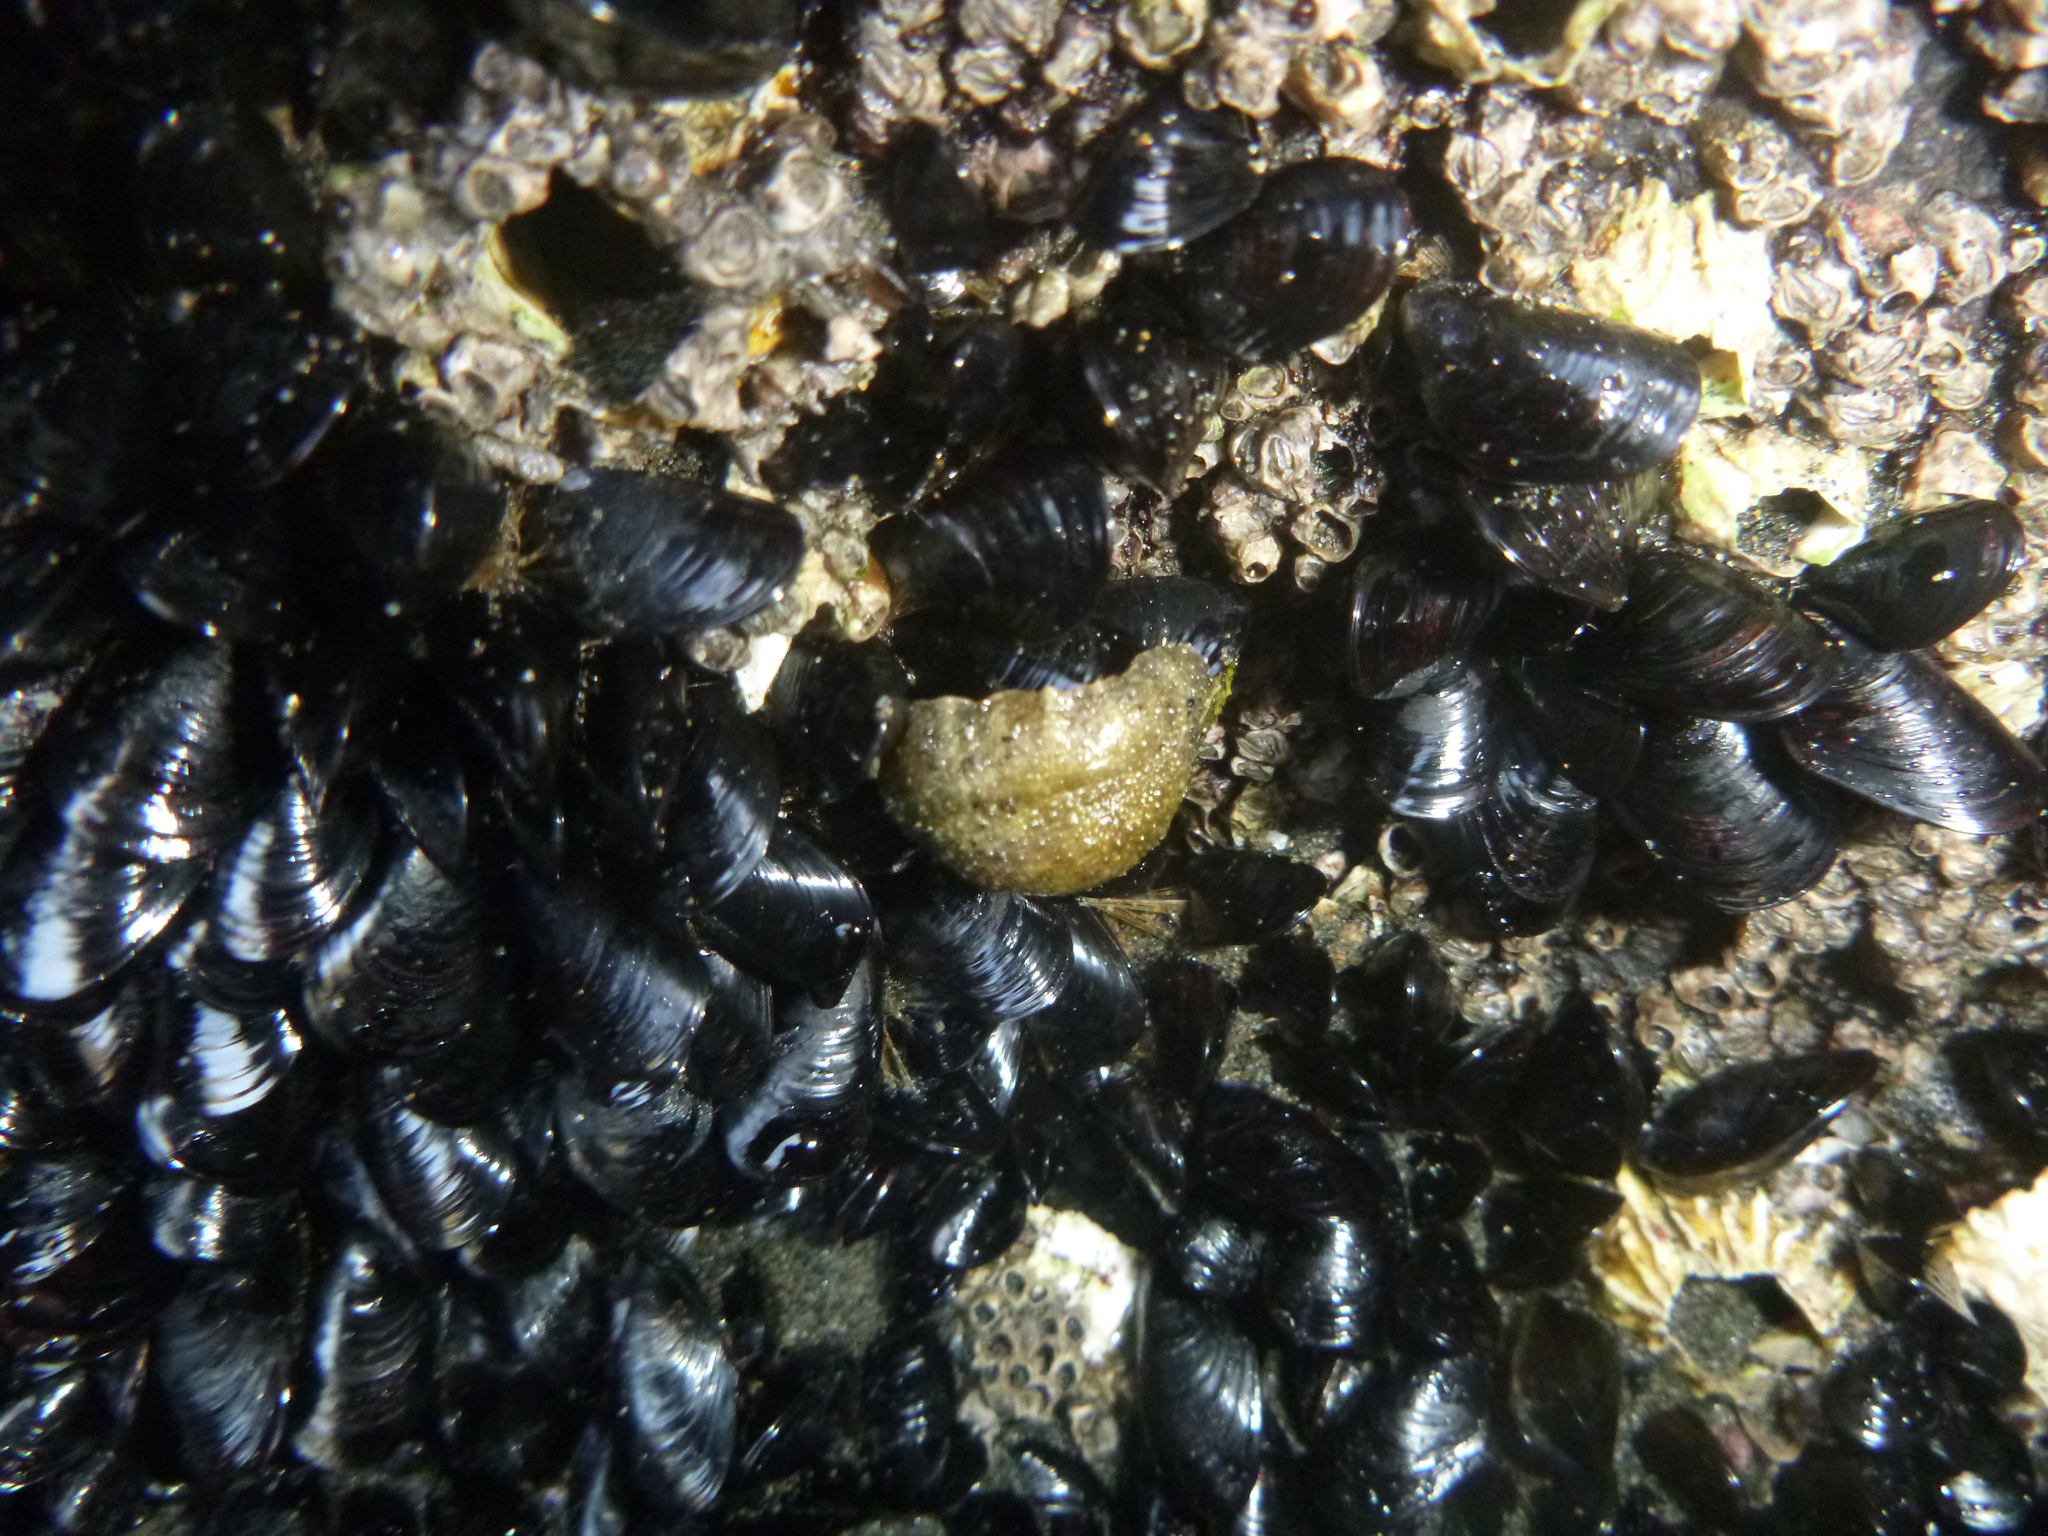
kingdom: Animalia
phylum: Mollusca
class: Gastropoda
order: Systellommatophora
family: Onchidiidae
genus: Onchidella
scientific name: Onchidella nigricans
